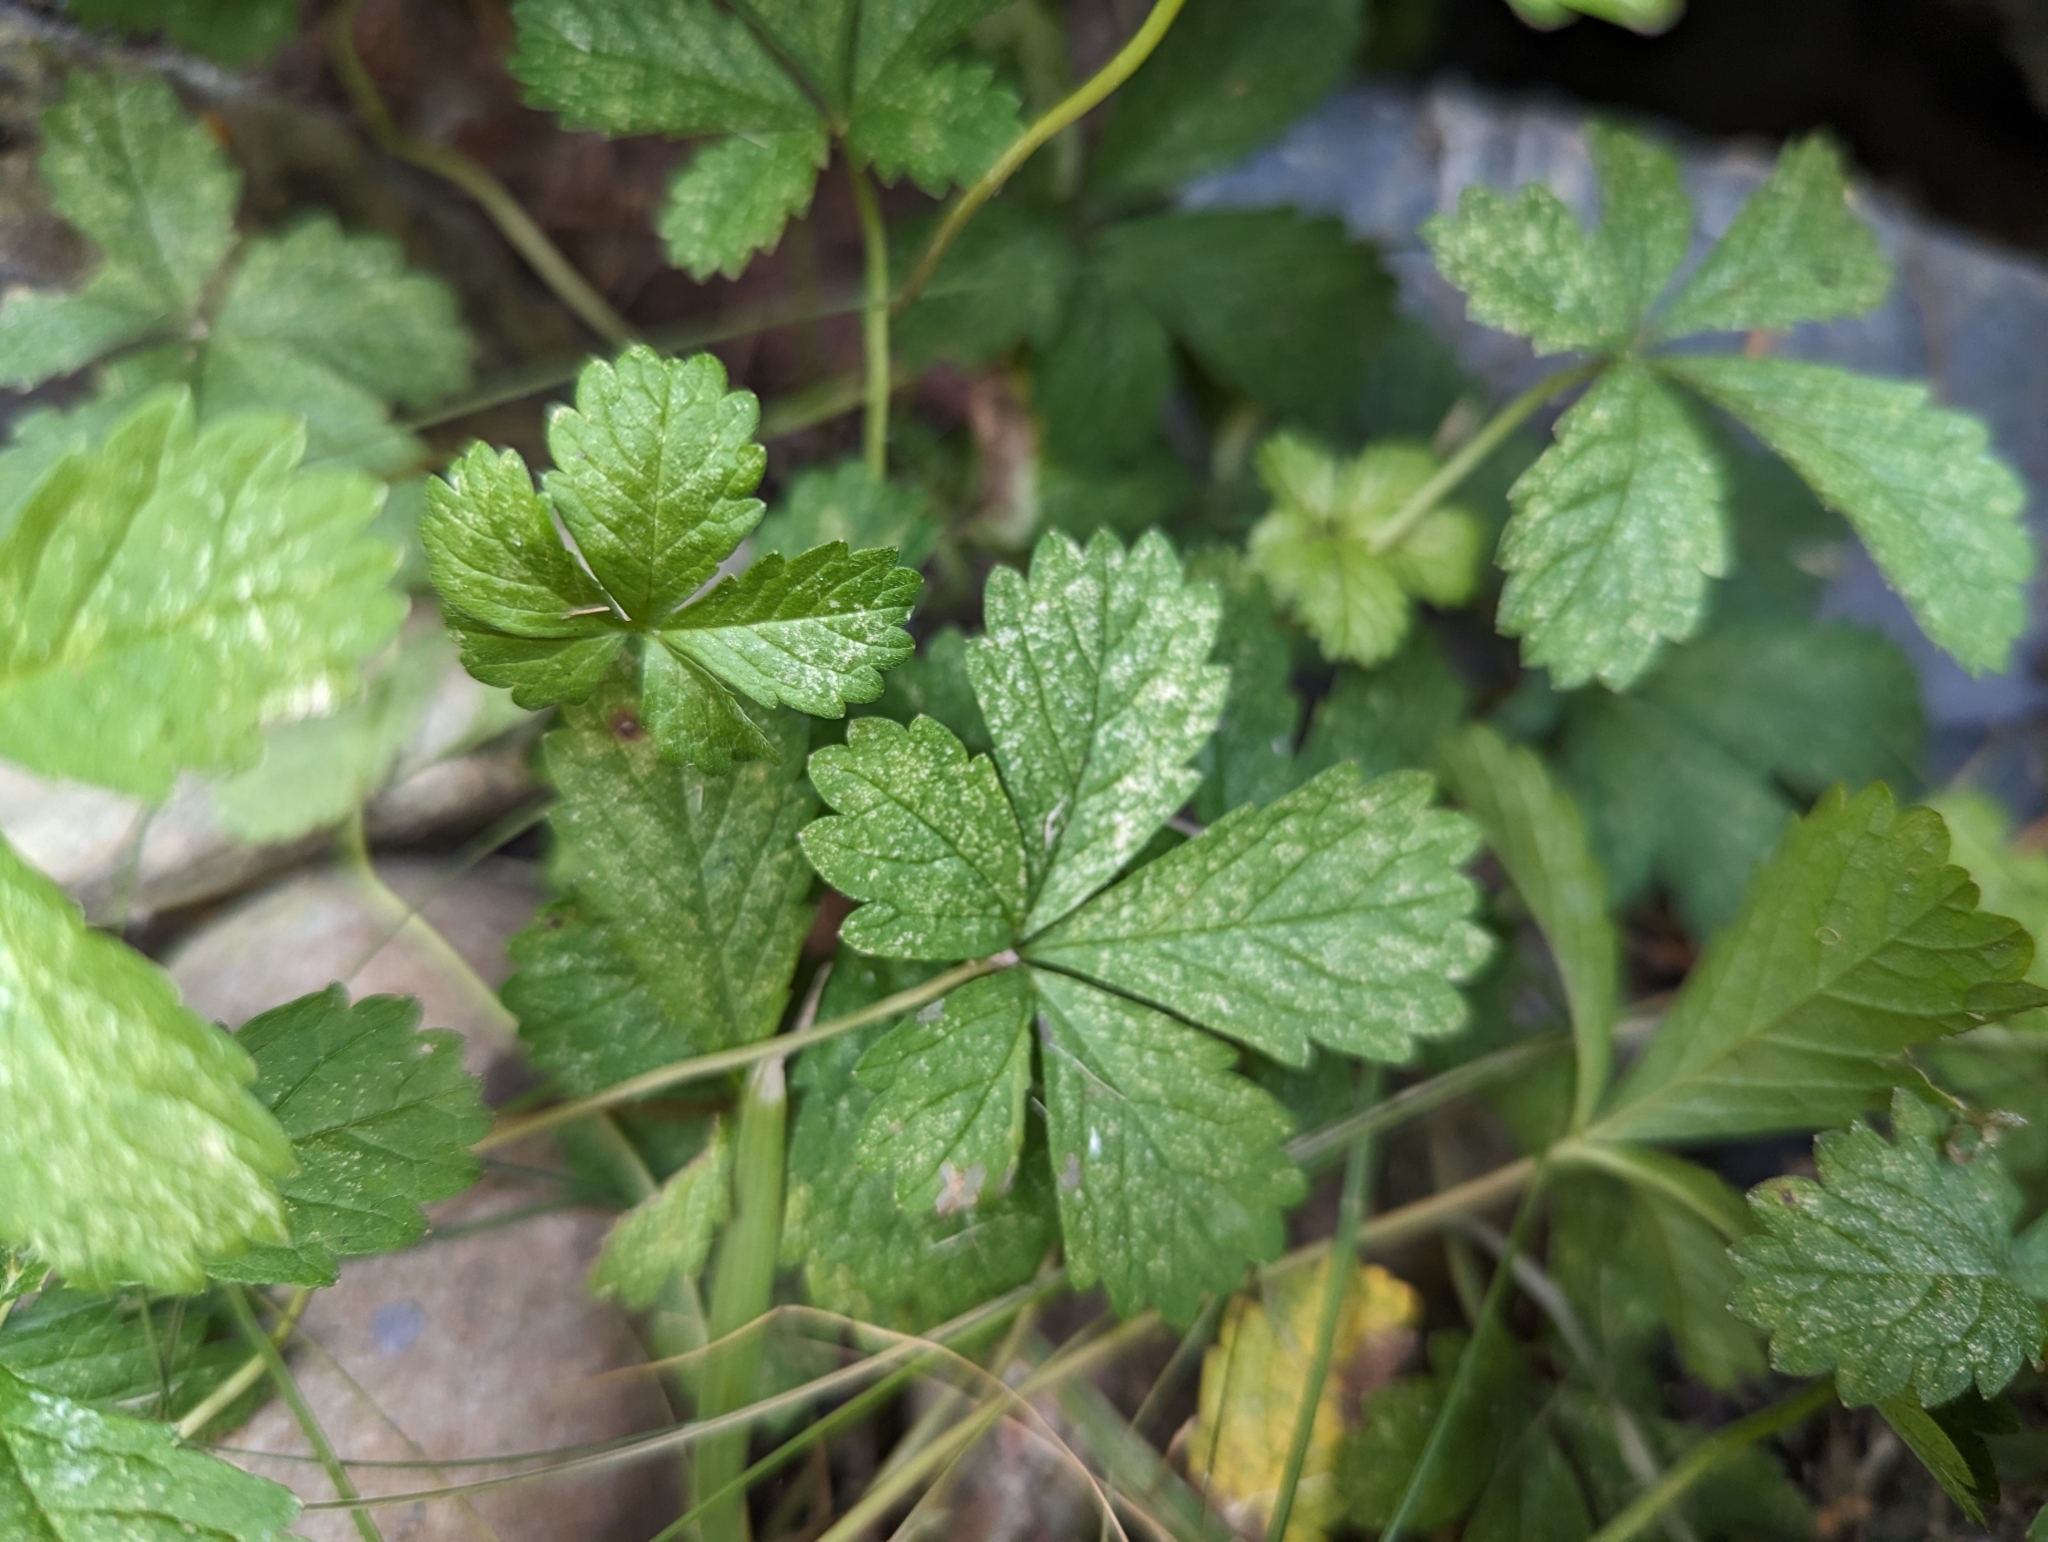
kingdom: Plantae
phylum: Tracheophyta
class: Magnoliopsida
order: Rosales
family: Rosaceae
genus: Potentilla
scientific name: Potentilla reptans
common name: Creeping cinquefoil
